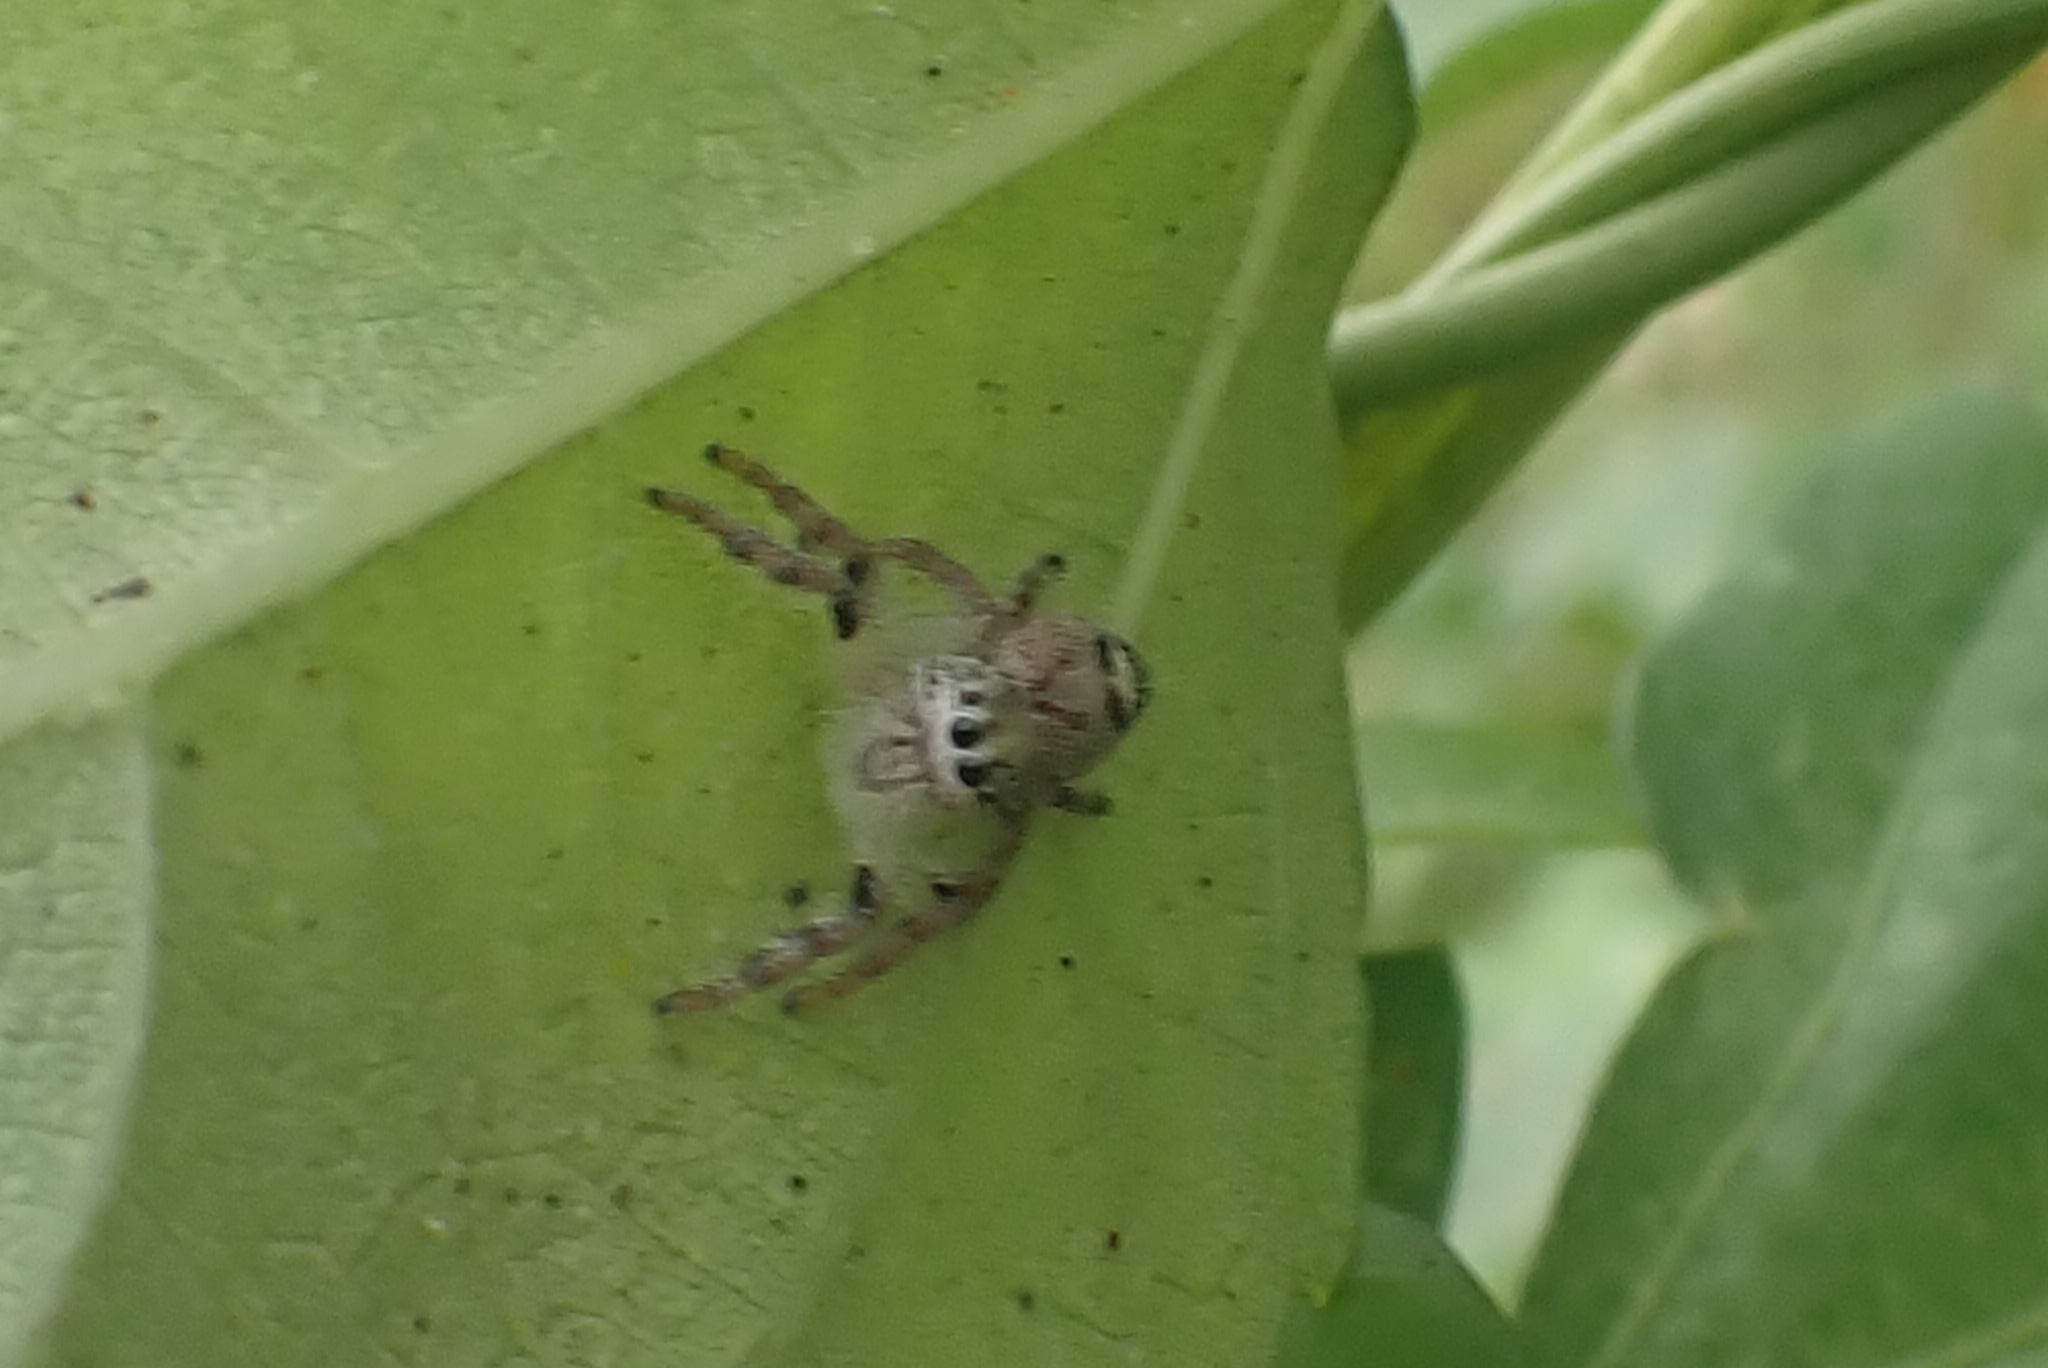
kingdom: Animalia
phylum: Arthropoda
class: Arachnida
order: Araneae
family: Salticidae
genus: Hyllus
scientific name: Hyllus diardi
